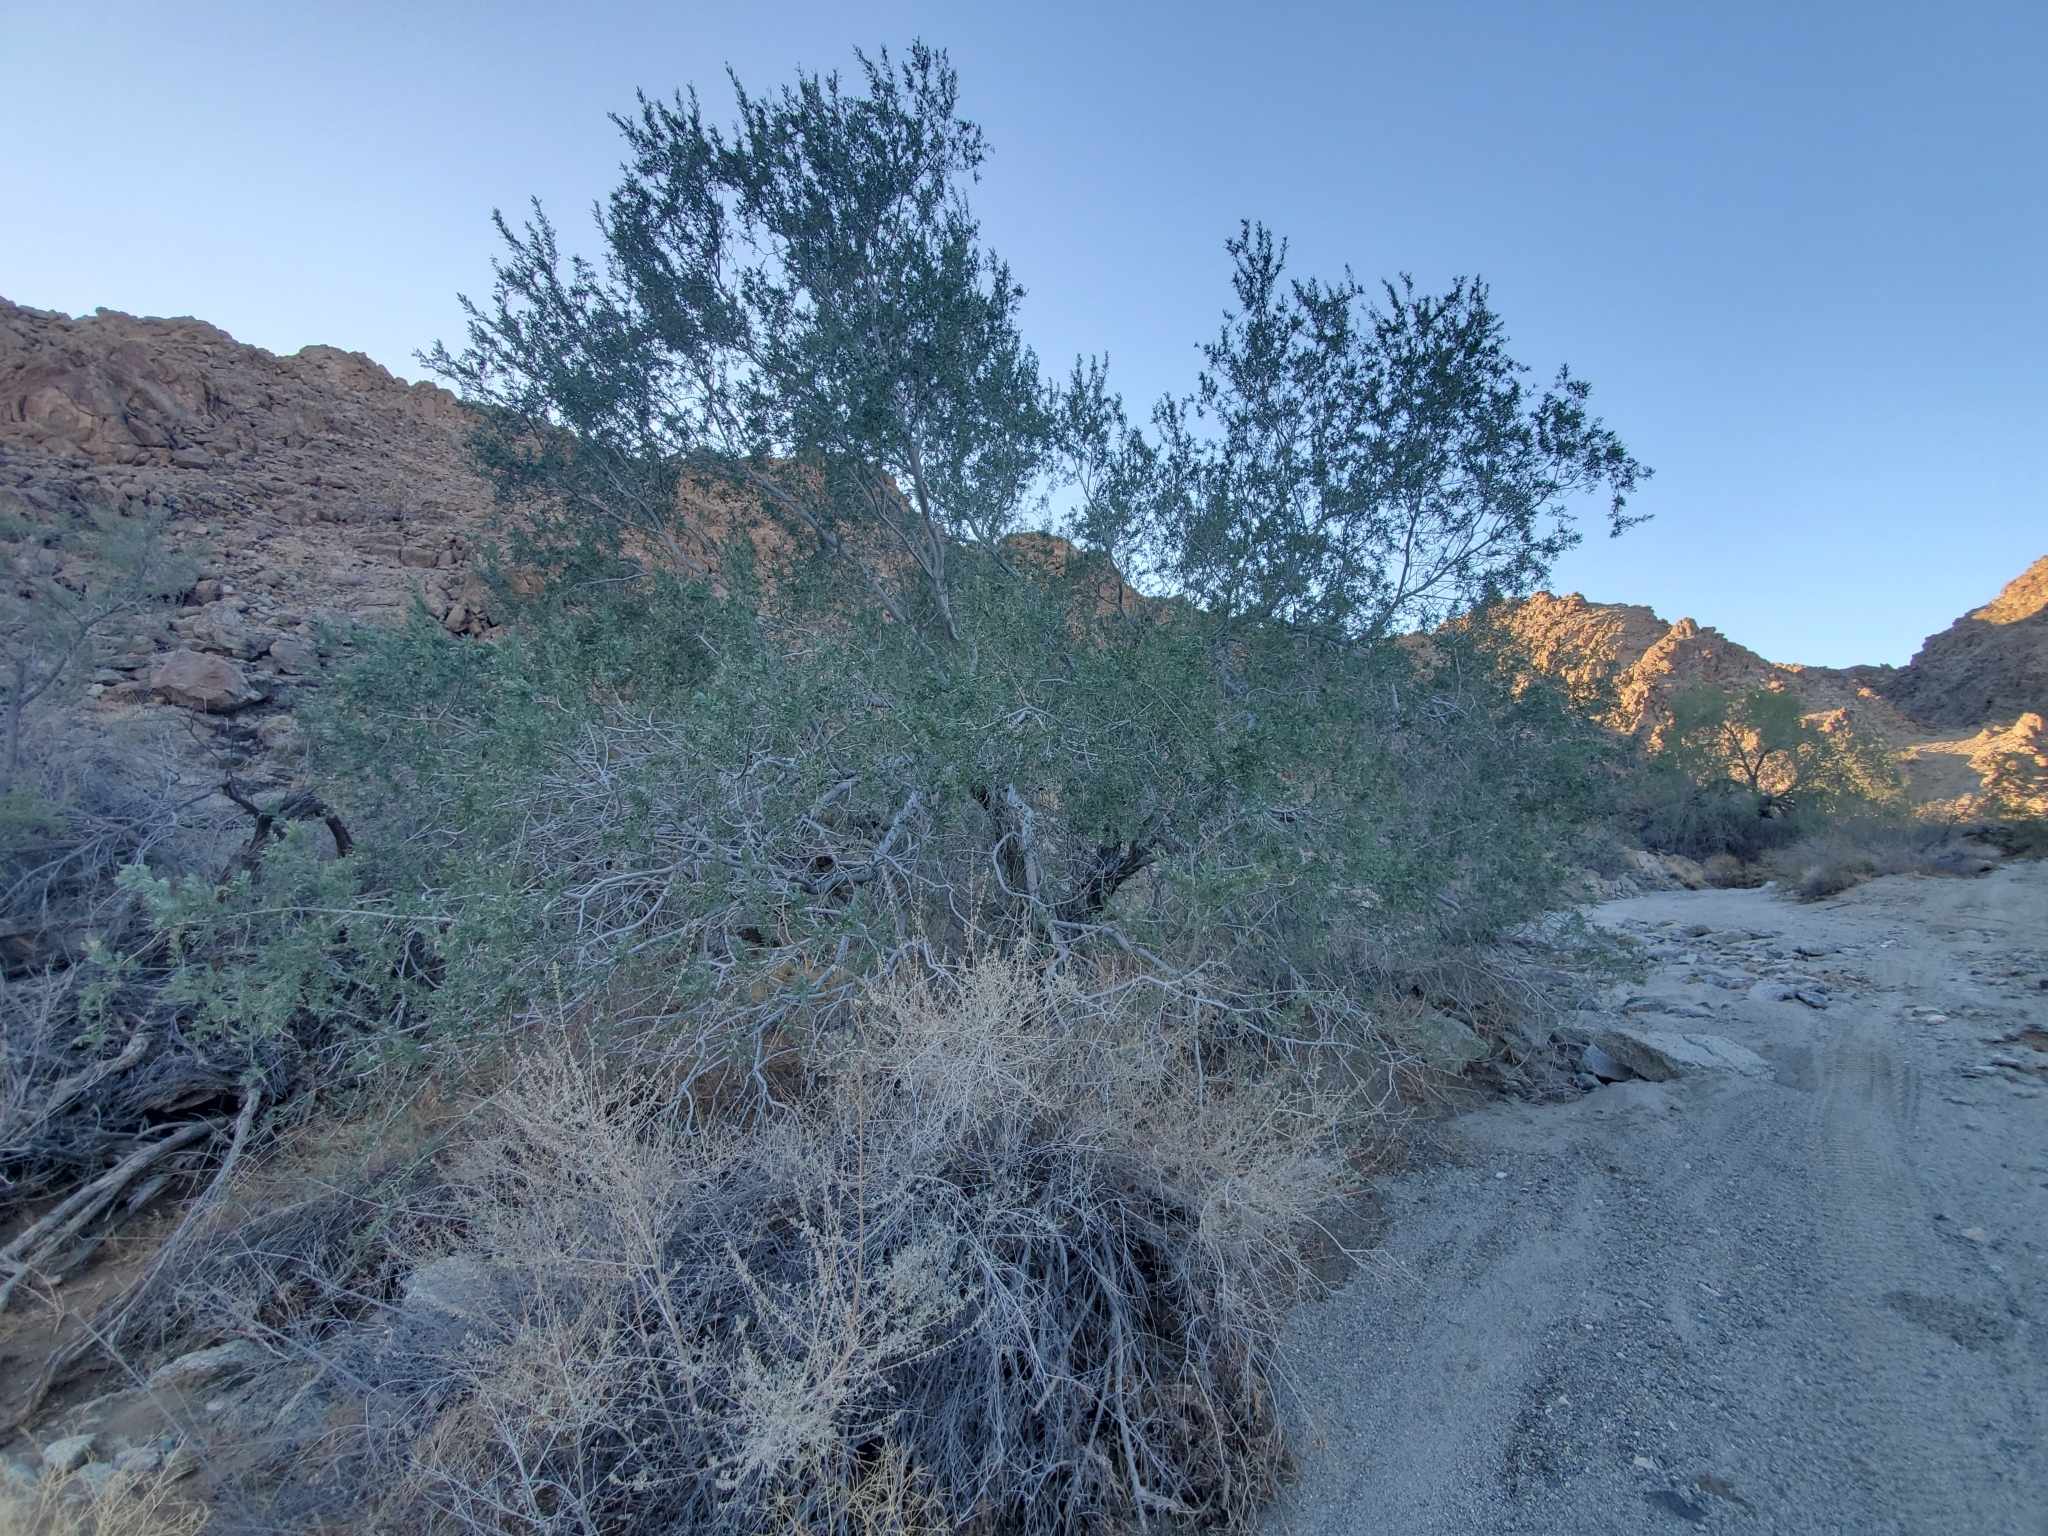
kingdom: Plantae
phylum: Tracheophyta
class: Magnoliopsida
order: Fabales
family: Fabaceae
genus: Olneya
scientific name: Olneya tesota
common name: Desert ironwood
